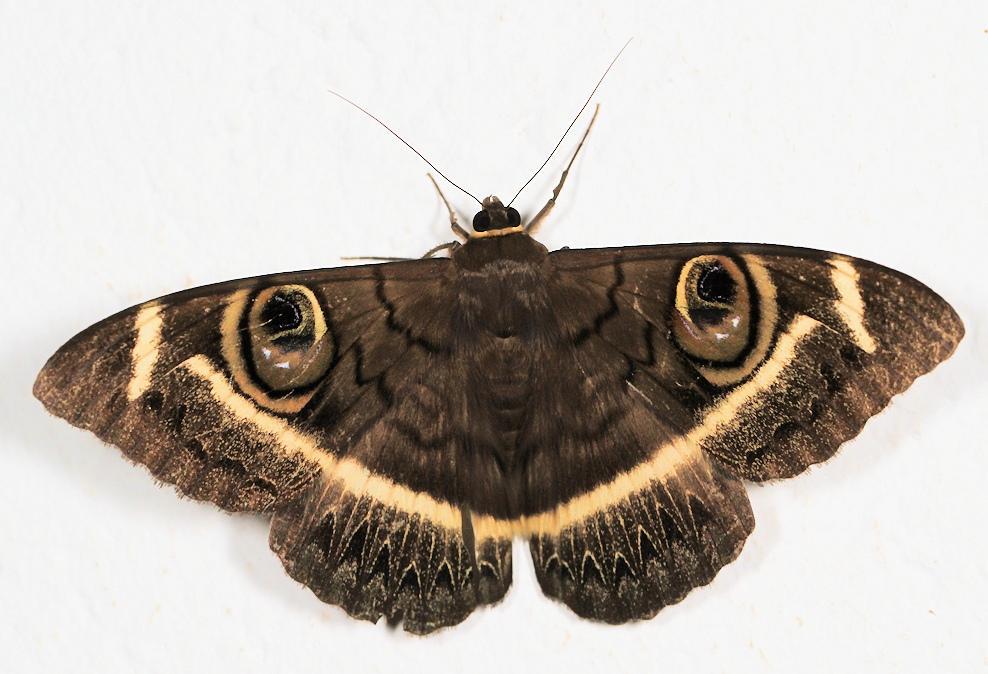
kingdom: Animalia
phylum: Arthropoda
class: Insecta
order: Lepidoptera
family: Erebidae
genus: Cyligramma
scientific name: Cyligramma latona
